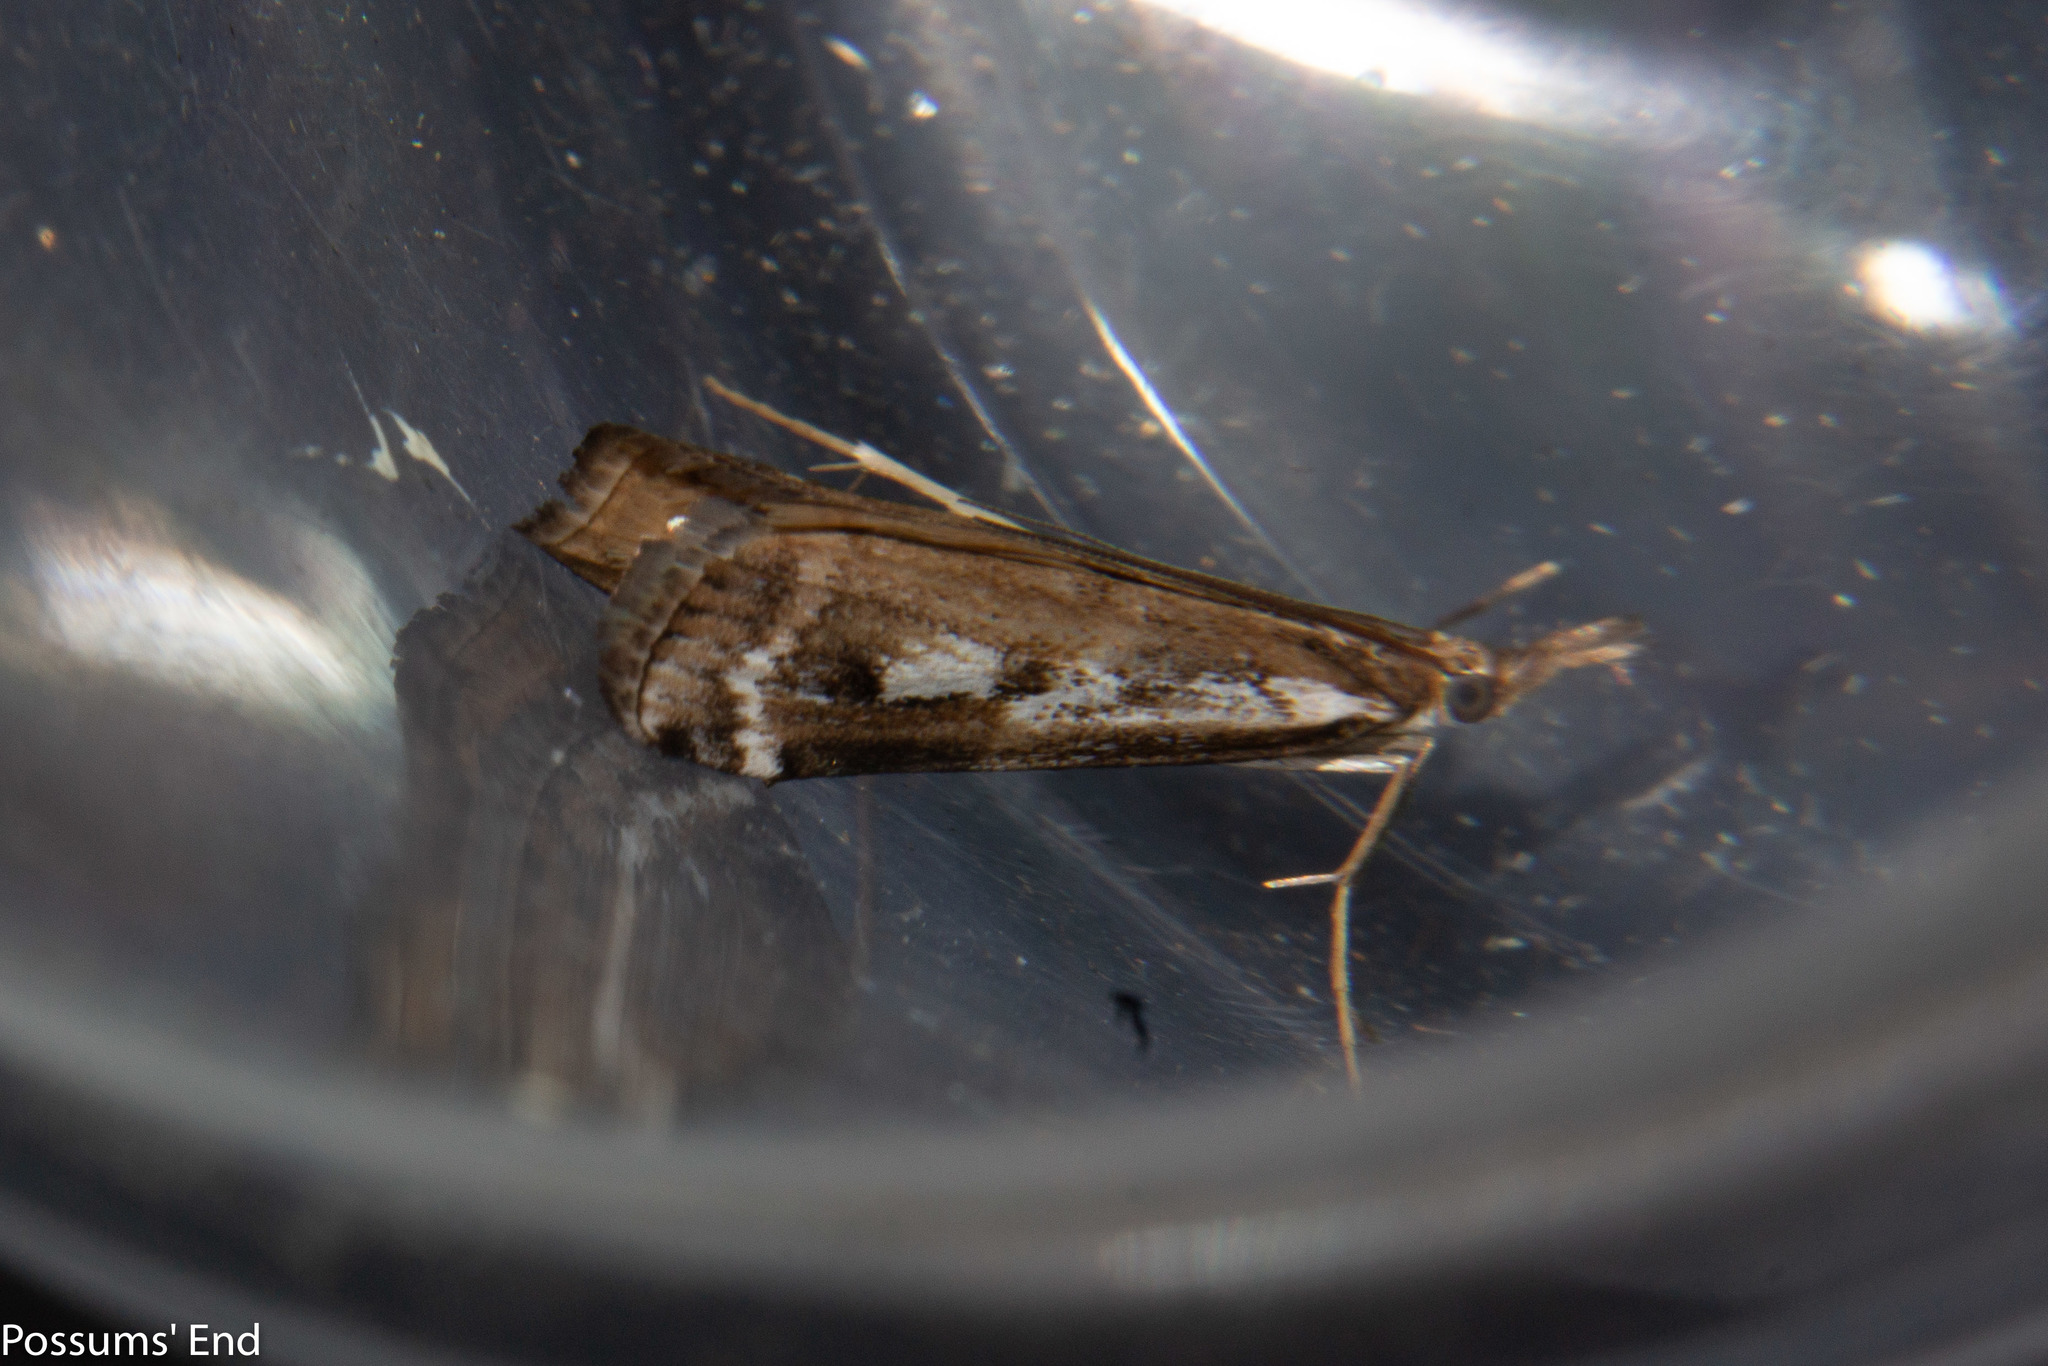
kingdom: Animalia
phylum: Arthropoda
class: Insecta
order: Lepidoptera
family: Crambidae
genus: Orocrambus
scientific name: Orocrambus vulgaris
